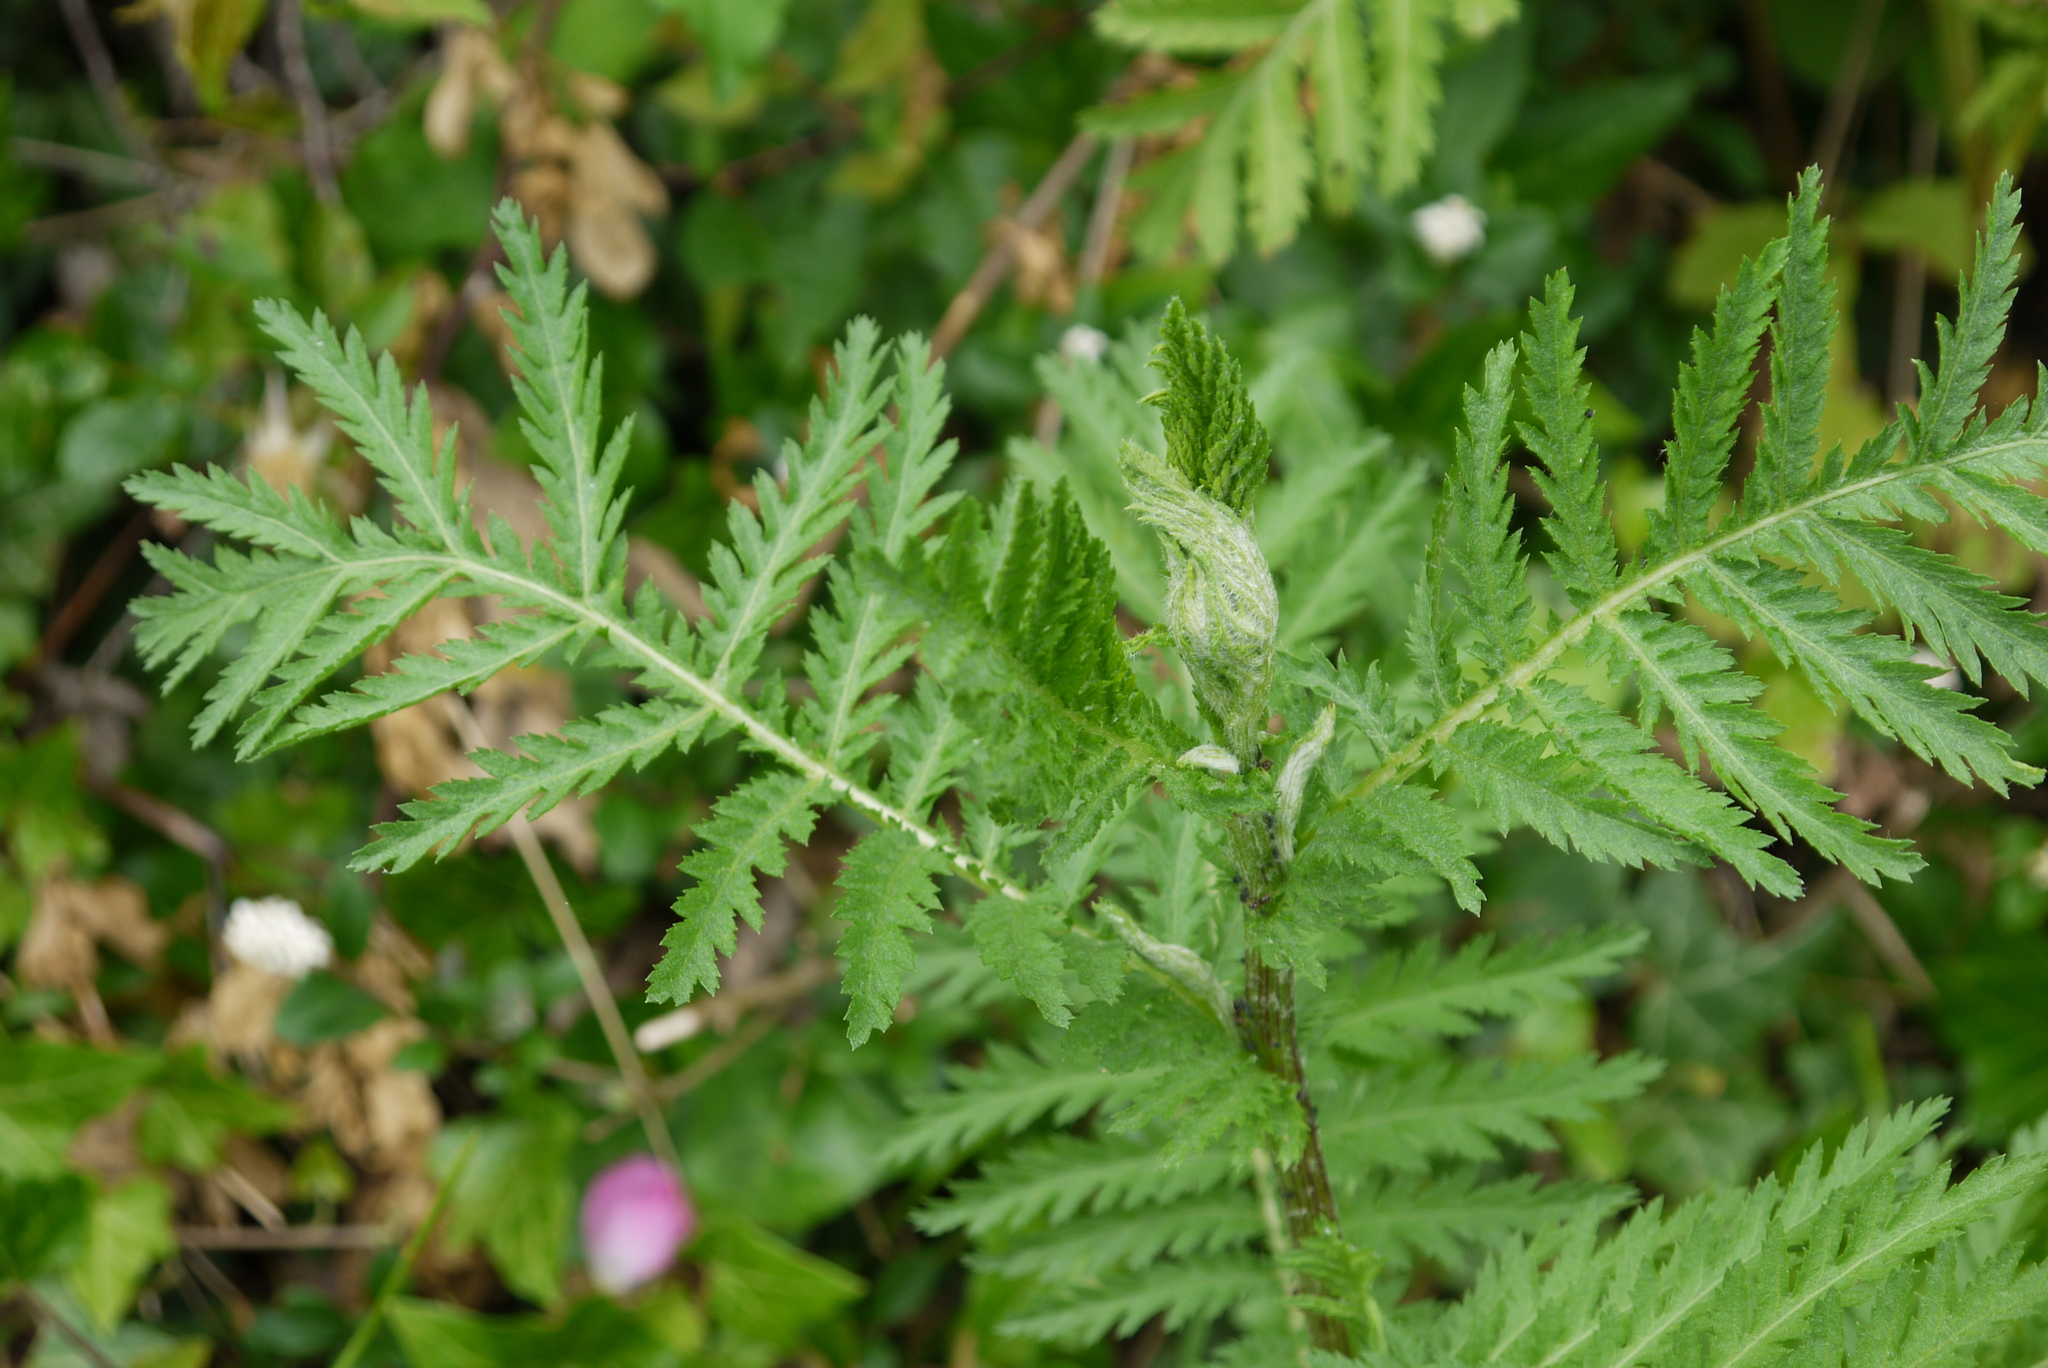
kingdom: Plantae
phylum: Tracheophyta
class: Magnoliopsida
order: Asterales
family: Asteraceae
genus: Tanacetum
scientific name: Tanacetum vulgare
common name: Common tansy
